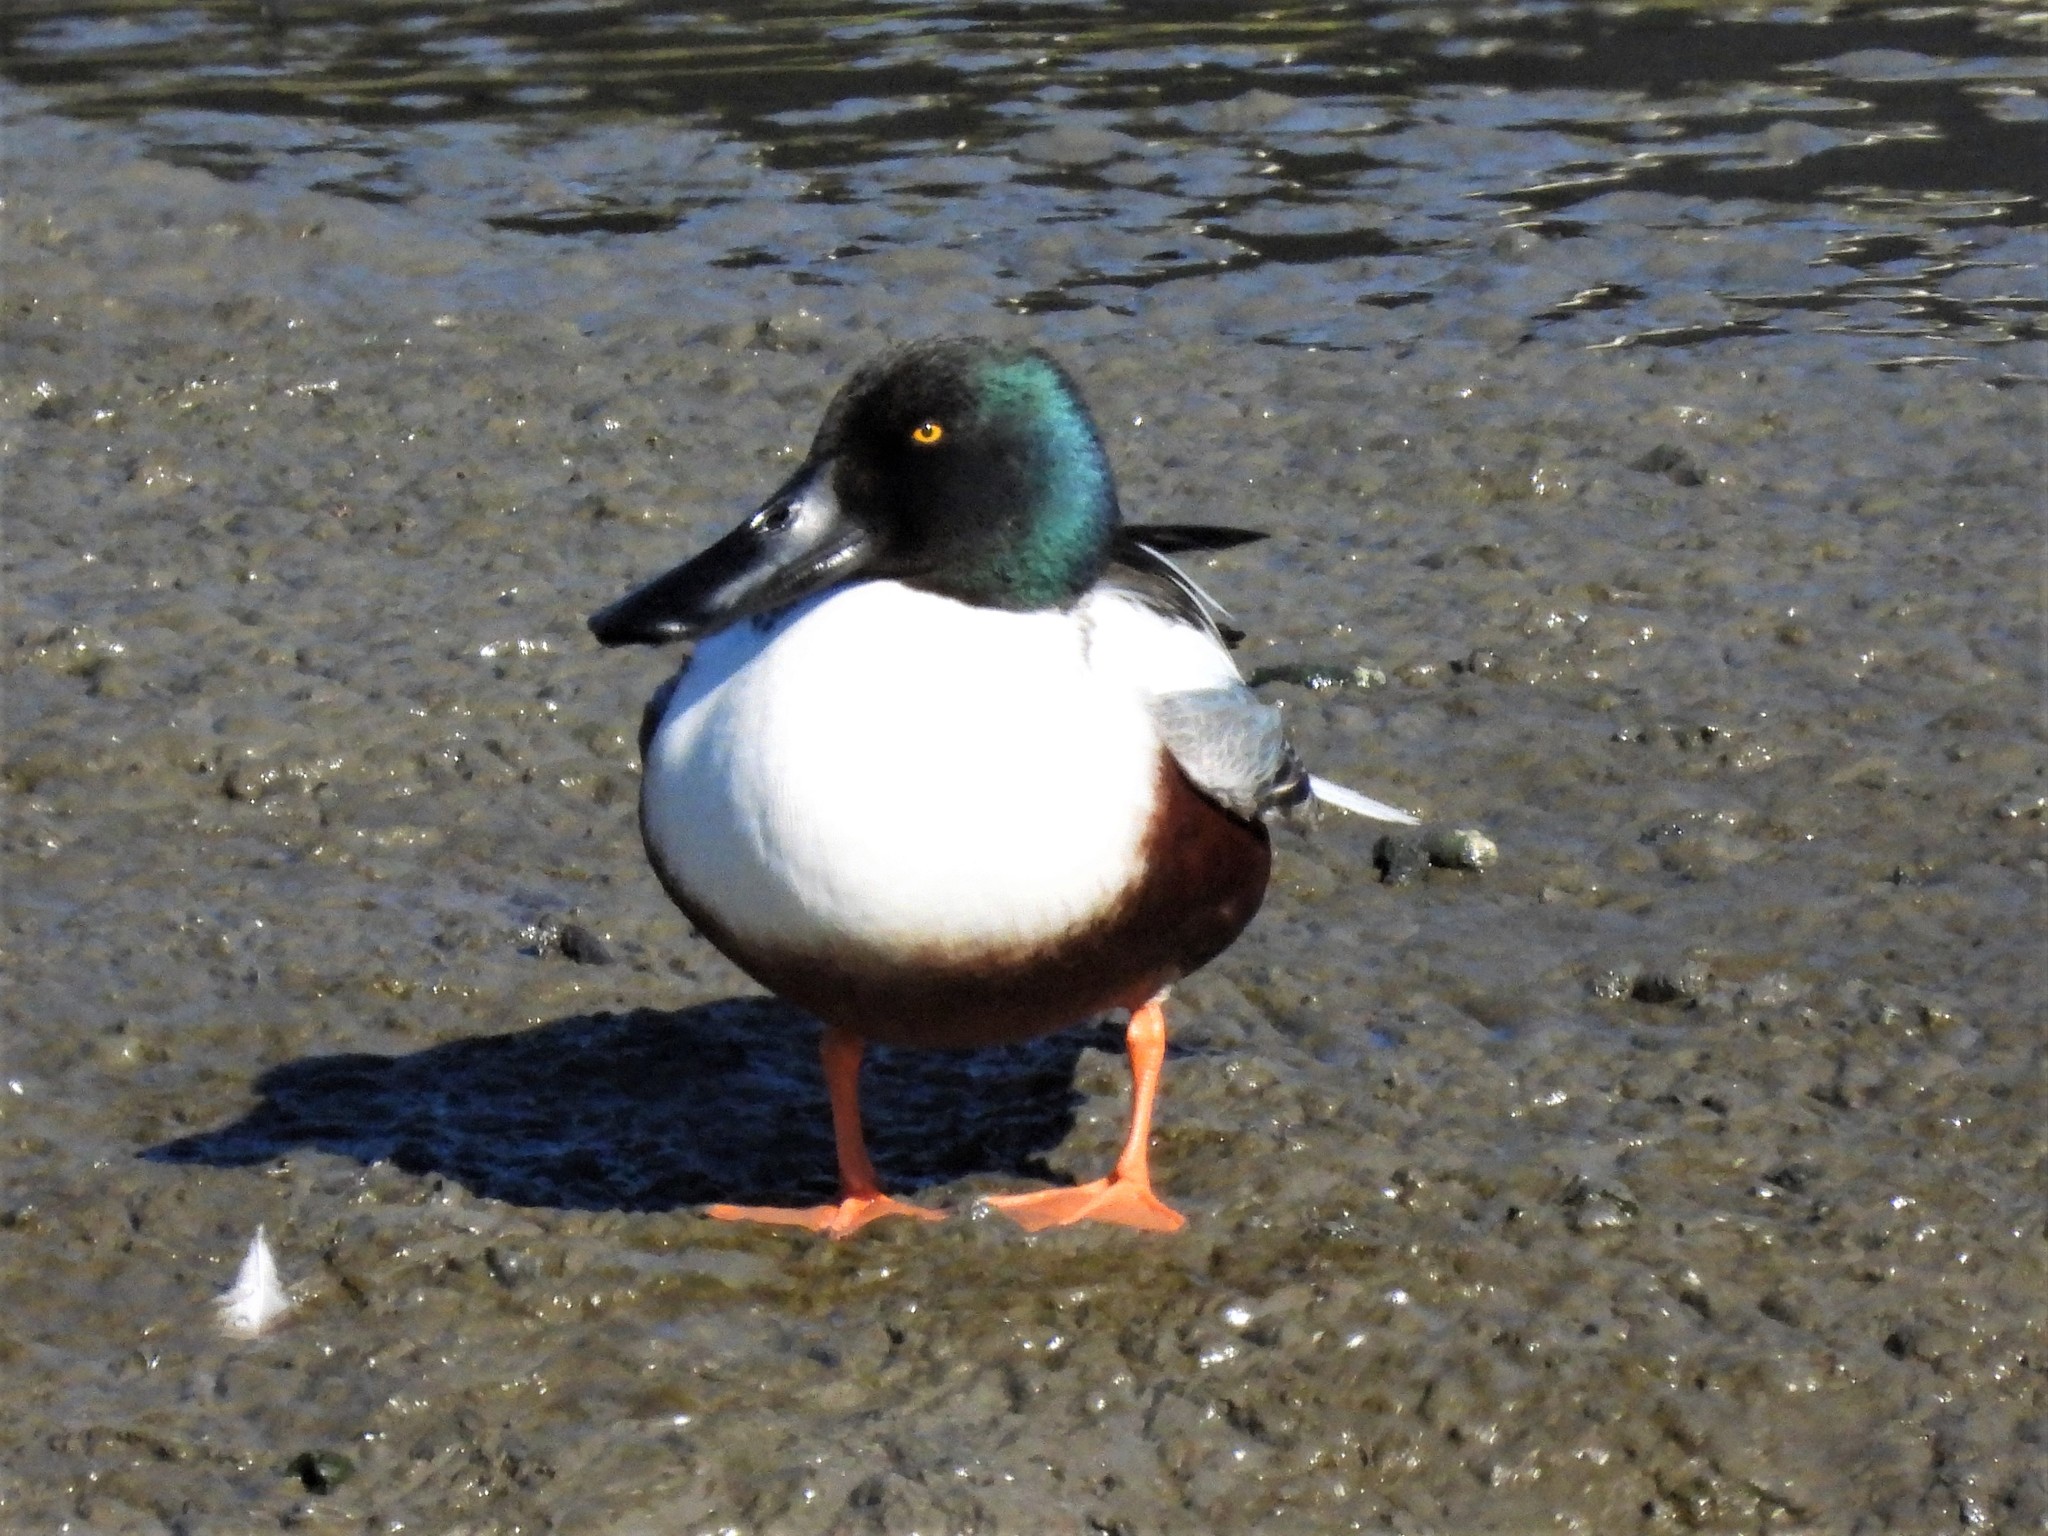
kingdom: Animalia
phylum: Chordata
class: Aves
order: Anseriformes
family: Anatidae
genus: Spatula
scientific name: Spatula clypeata
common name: Northern shoveler
